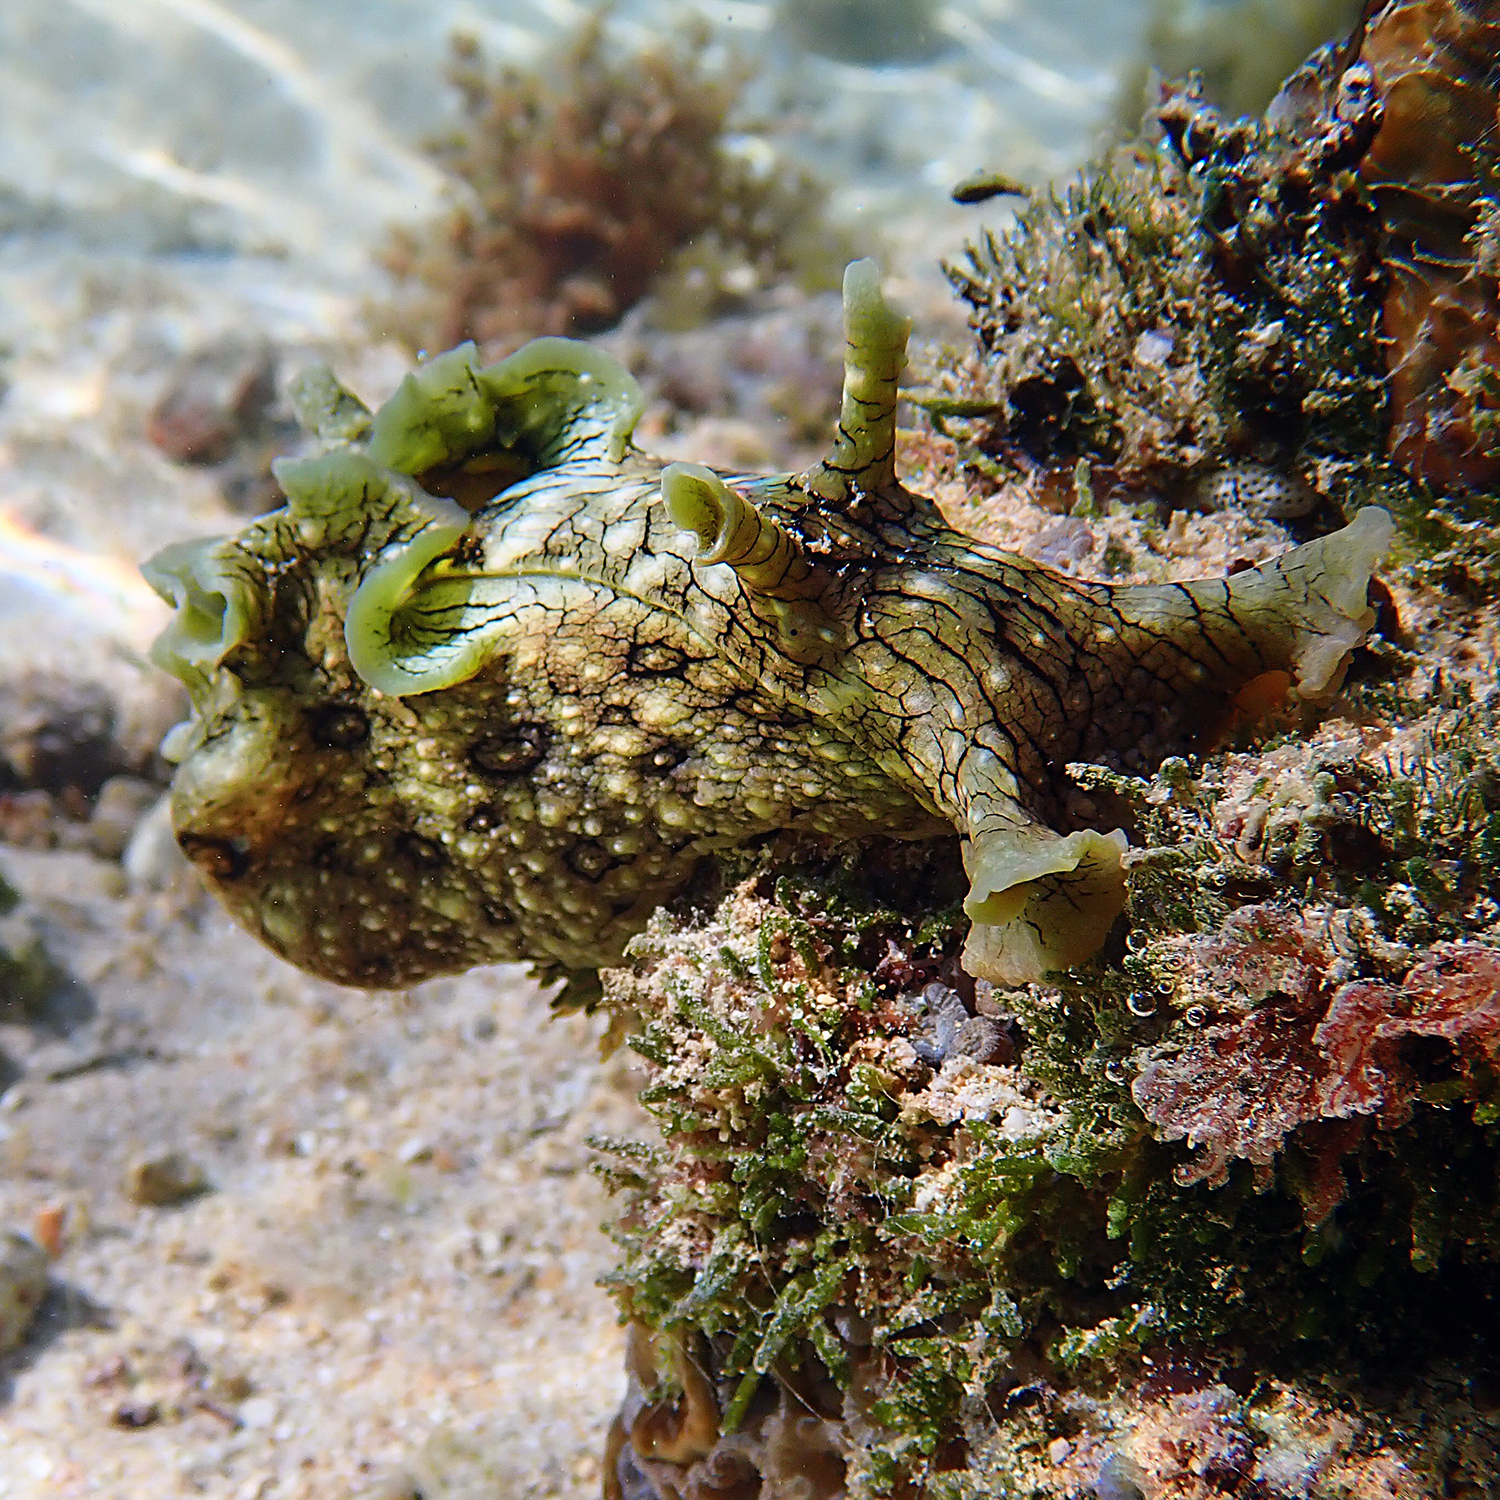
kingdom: Animalia
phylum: Mollusca
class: Gastropoda
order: Aplysiida
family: Aplysiidae
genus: Aplysia
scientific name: Aplysia argus
